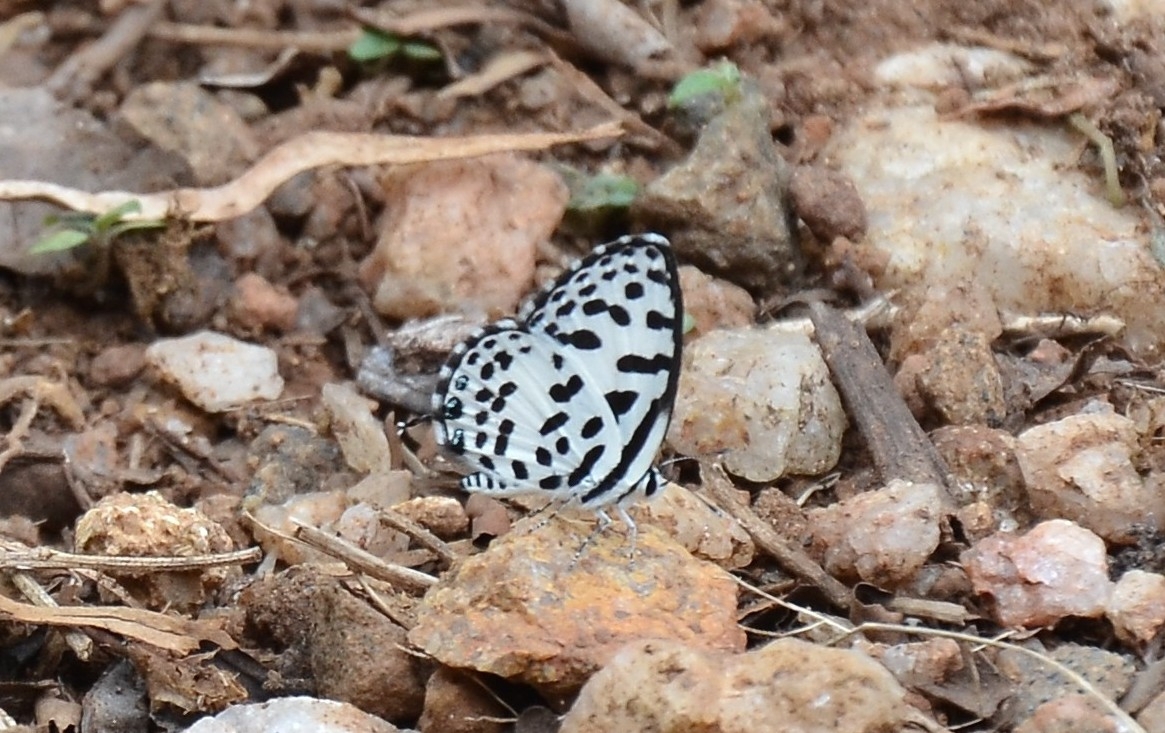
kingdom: Animalia
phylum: Arthropoda
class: Insecta
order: Lepidoptera
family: Lycaenidae
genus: Castalius
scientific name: Castalius rosimon
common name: Common pierrot
